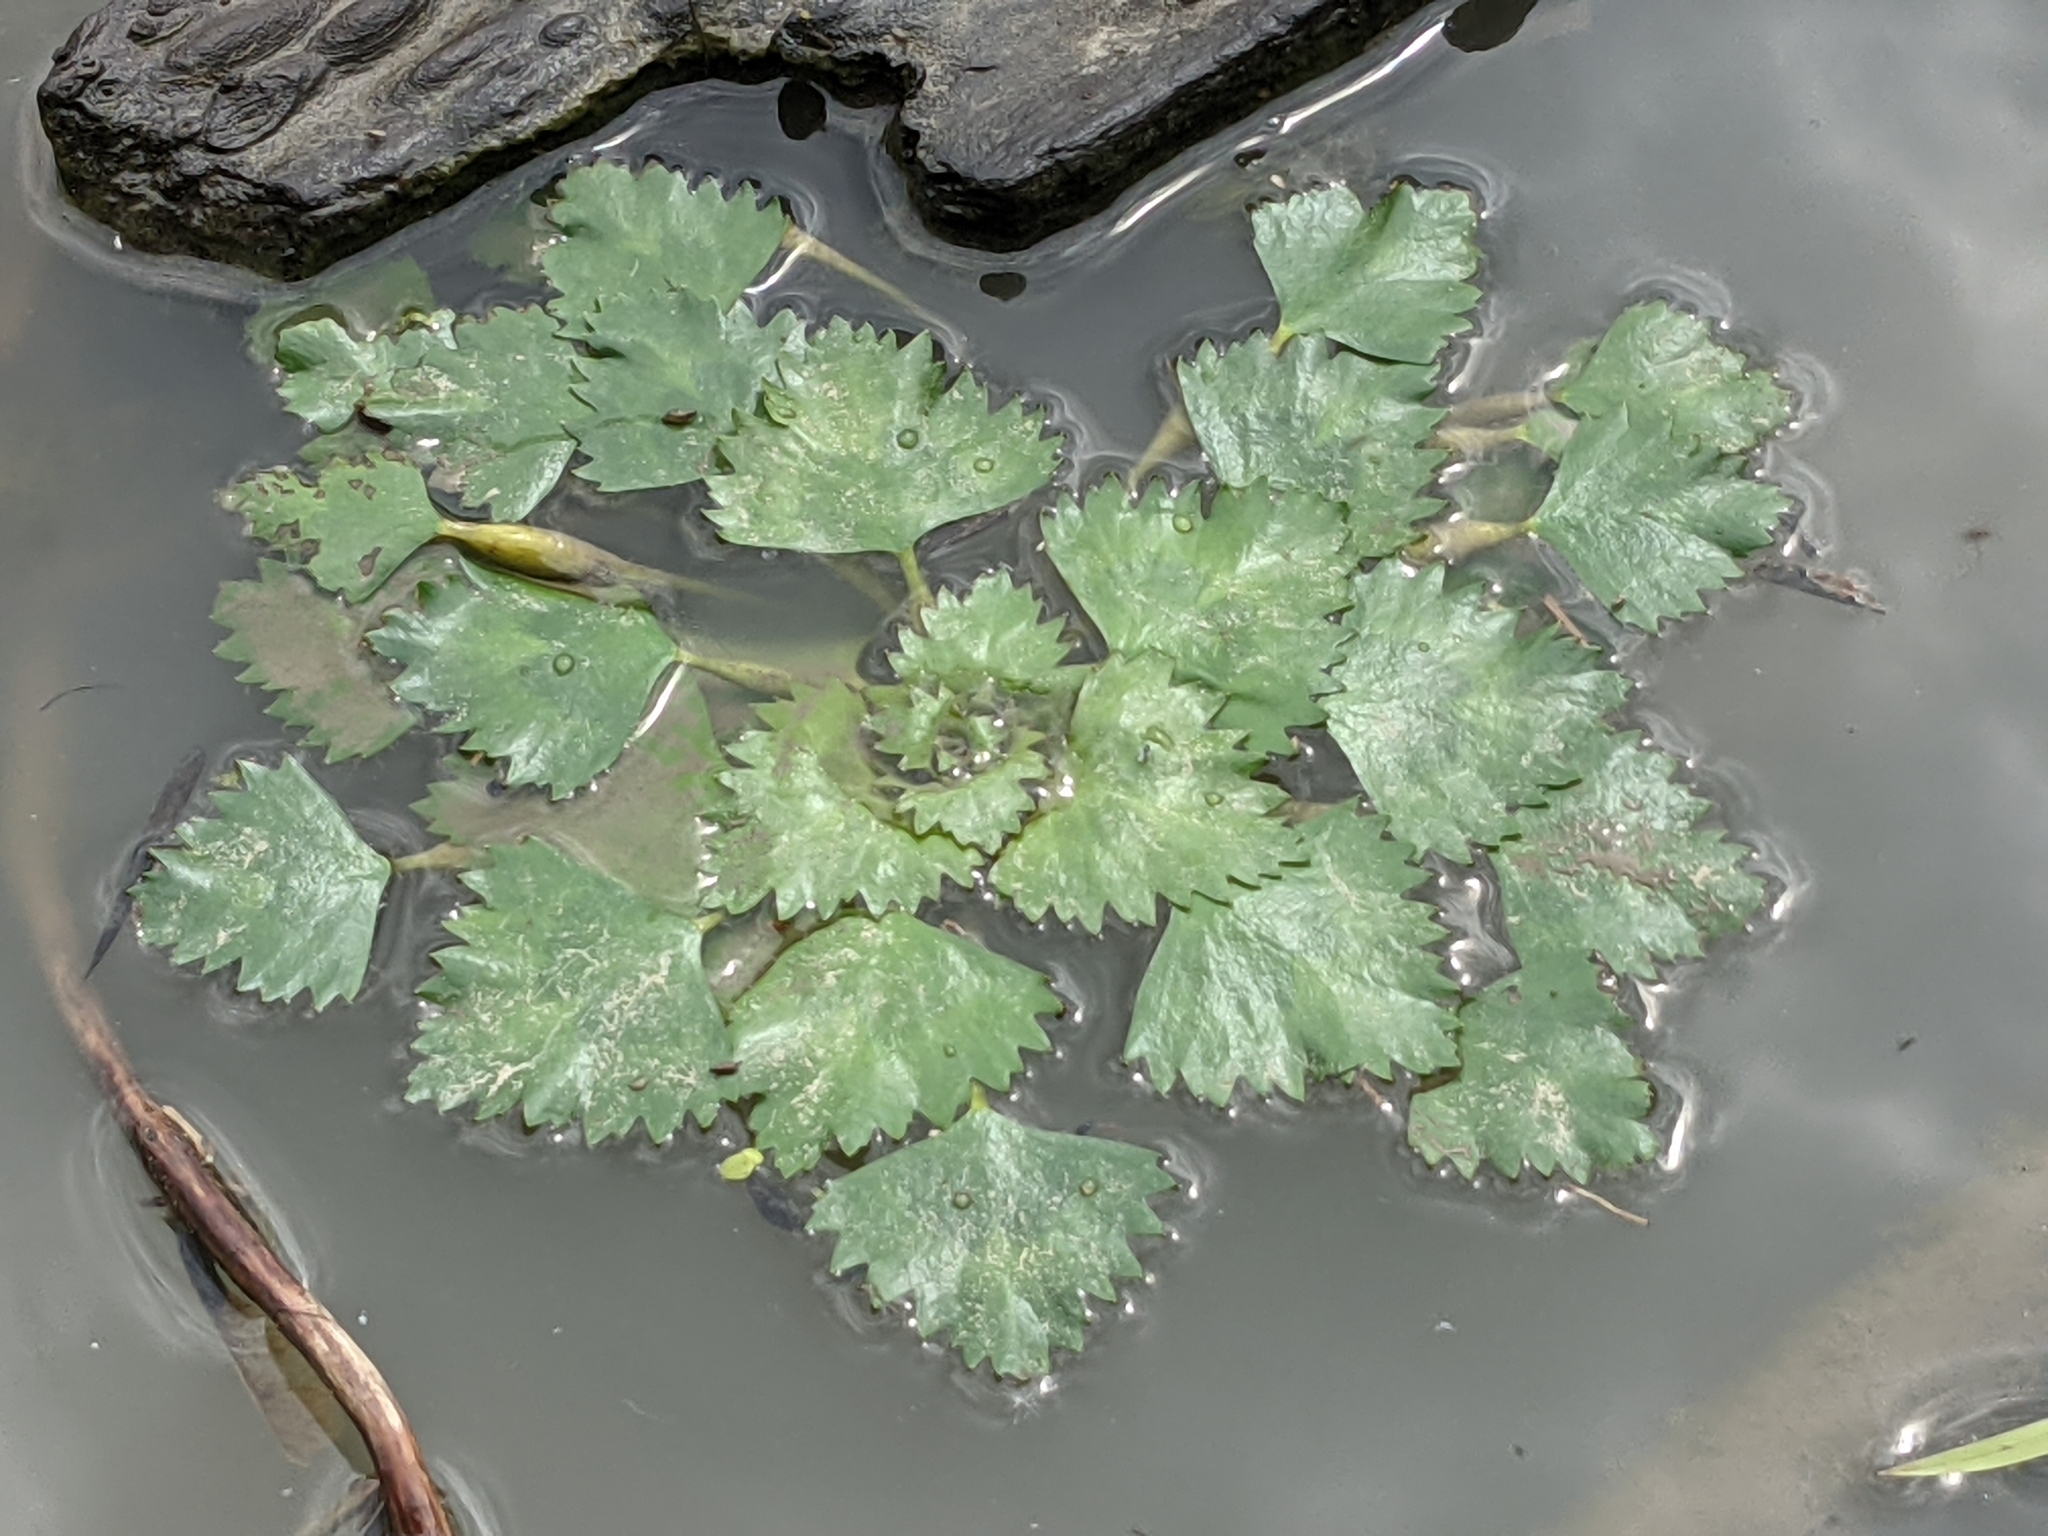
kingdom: Plantae
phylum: Tracheophyta
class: Magnoliopsida
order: Myrtales
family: Lythraceae
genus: Trapa
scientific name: Trapa natans
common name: Water chestnut
